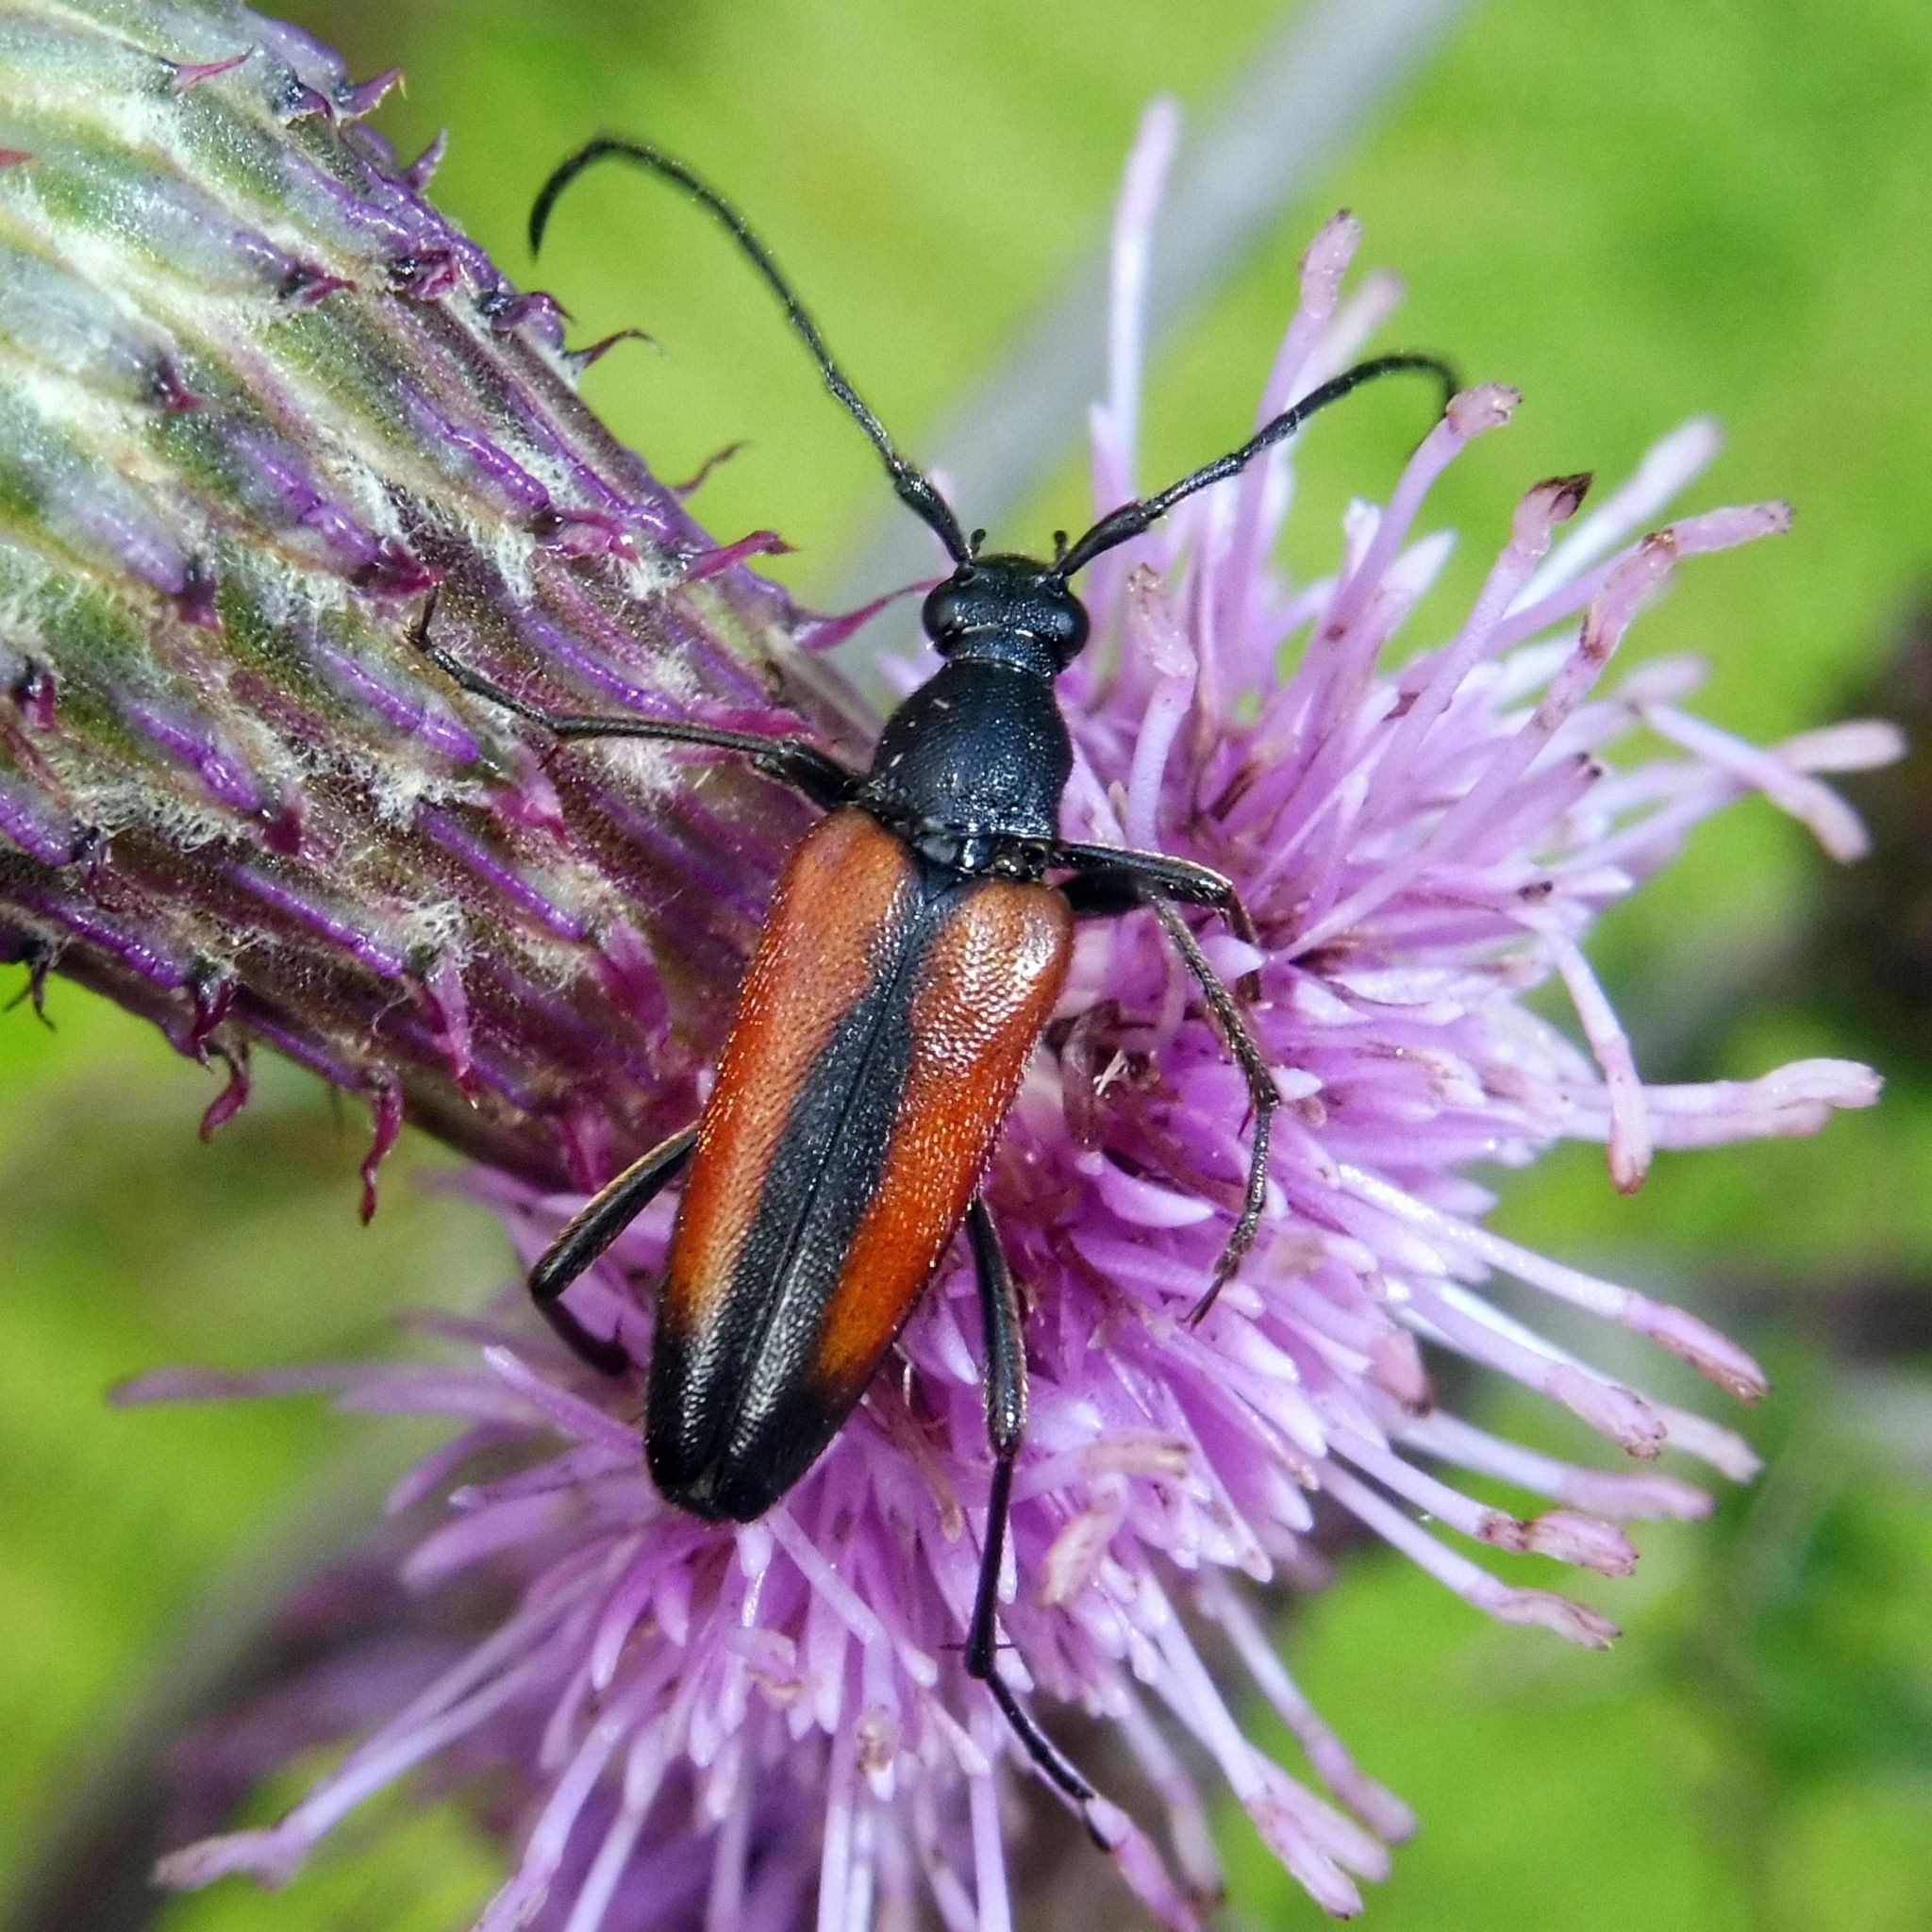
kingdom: Animalia
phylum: Arthropoda
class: Insecta
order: Coleoptera
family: Cerambycidae
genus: Stenurella
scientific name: Stenurella melanura
